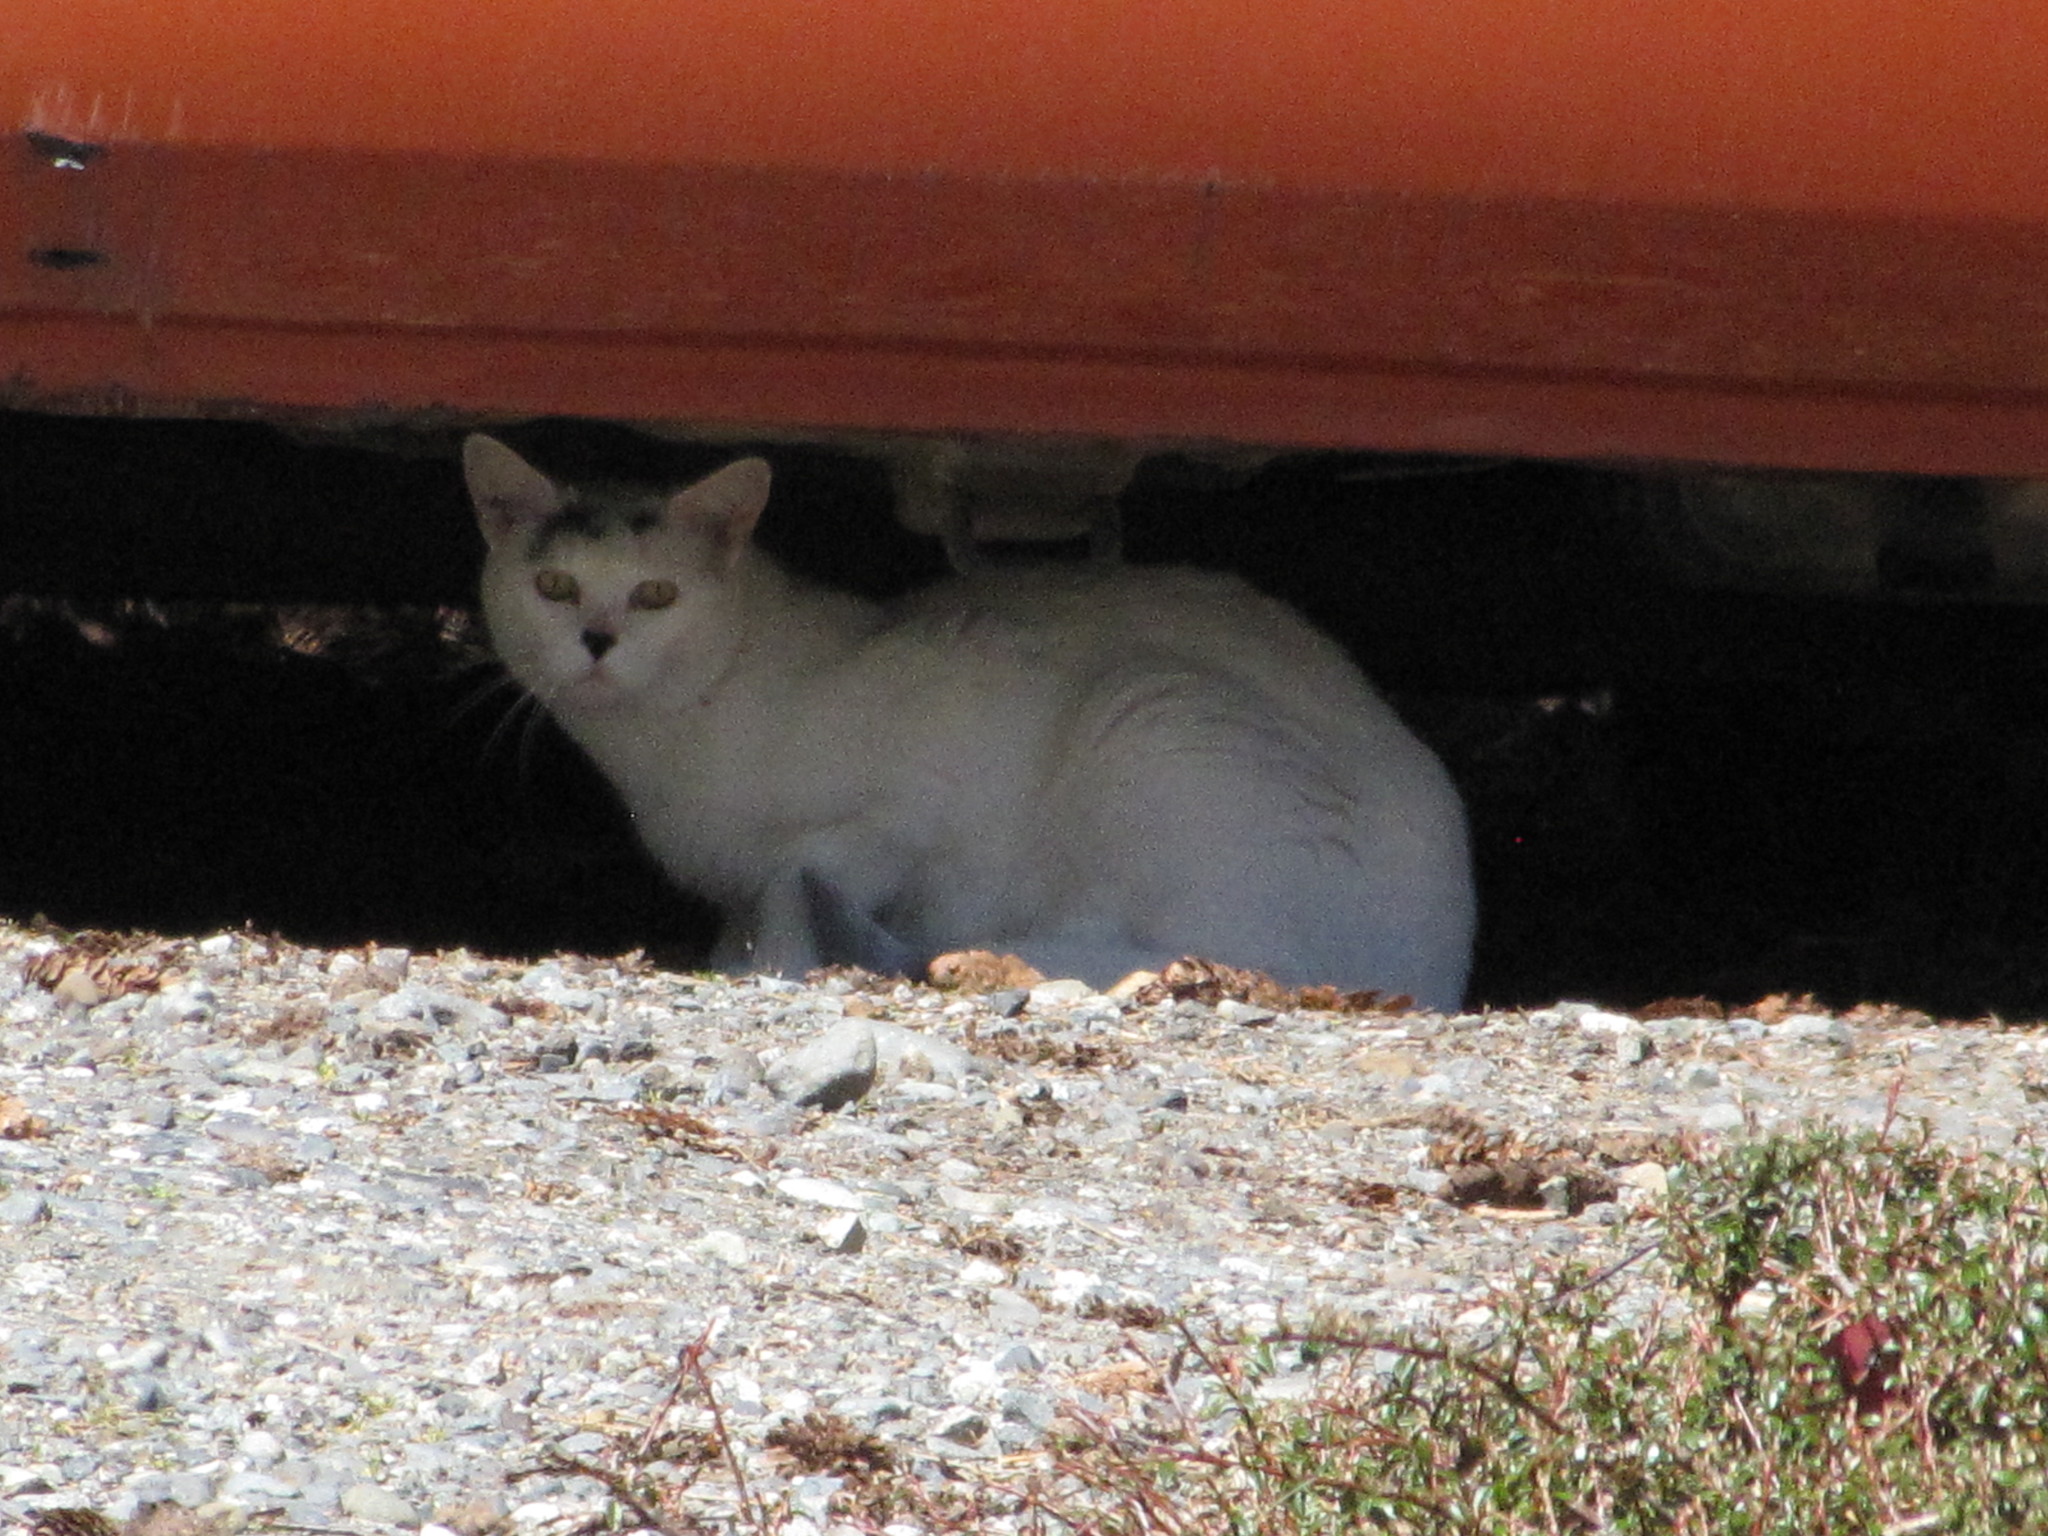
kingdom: Animalia
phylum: Chordata
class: Mammalia
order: Carnivora
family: Felidae
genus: Felis
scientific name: Felis catus
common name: Domestic cat
